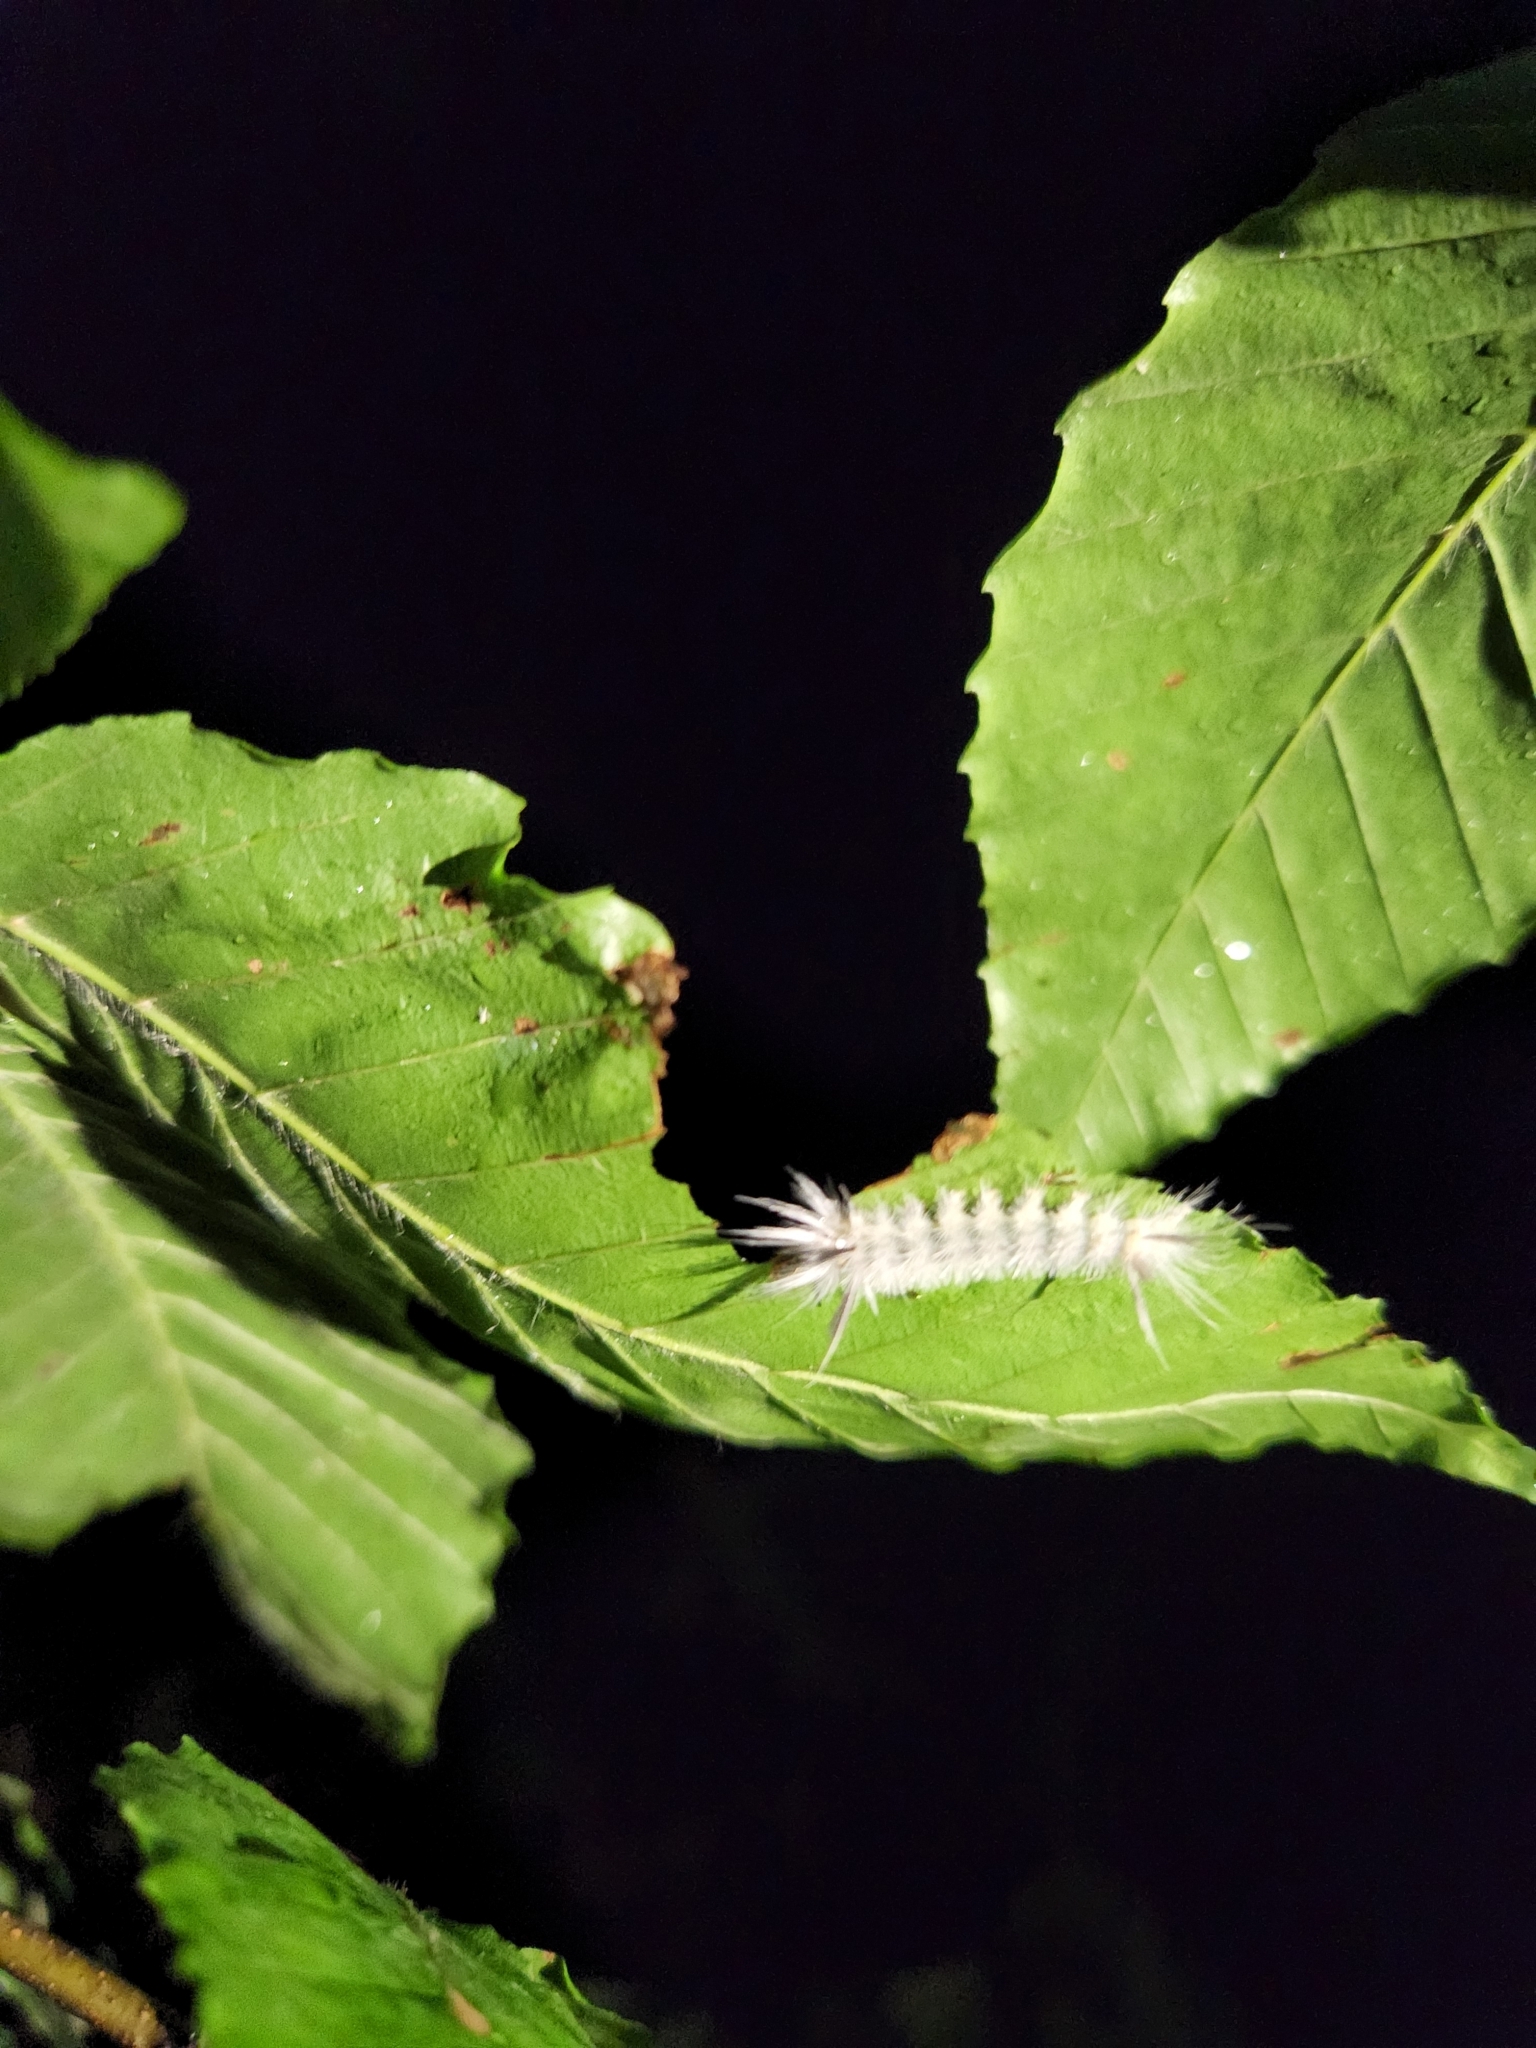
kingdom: Animalia
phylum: Arthropoda
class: Insecta
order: Lepidoptera
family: Erebidae
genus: Halysidota
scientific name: Halysidota tessellaris
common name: Banded tussock moth
